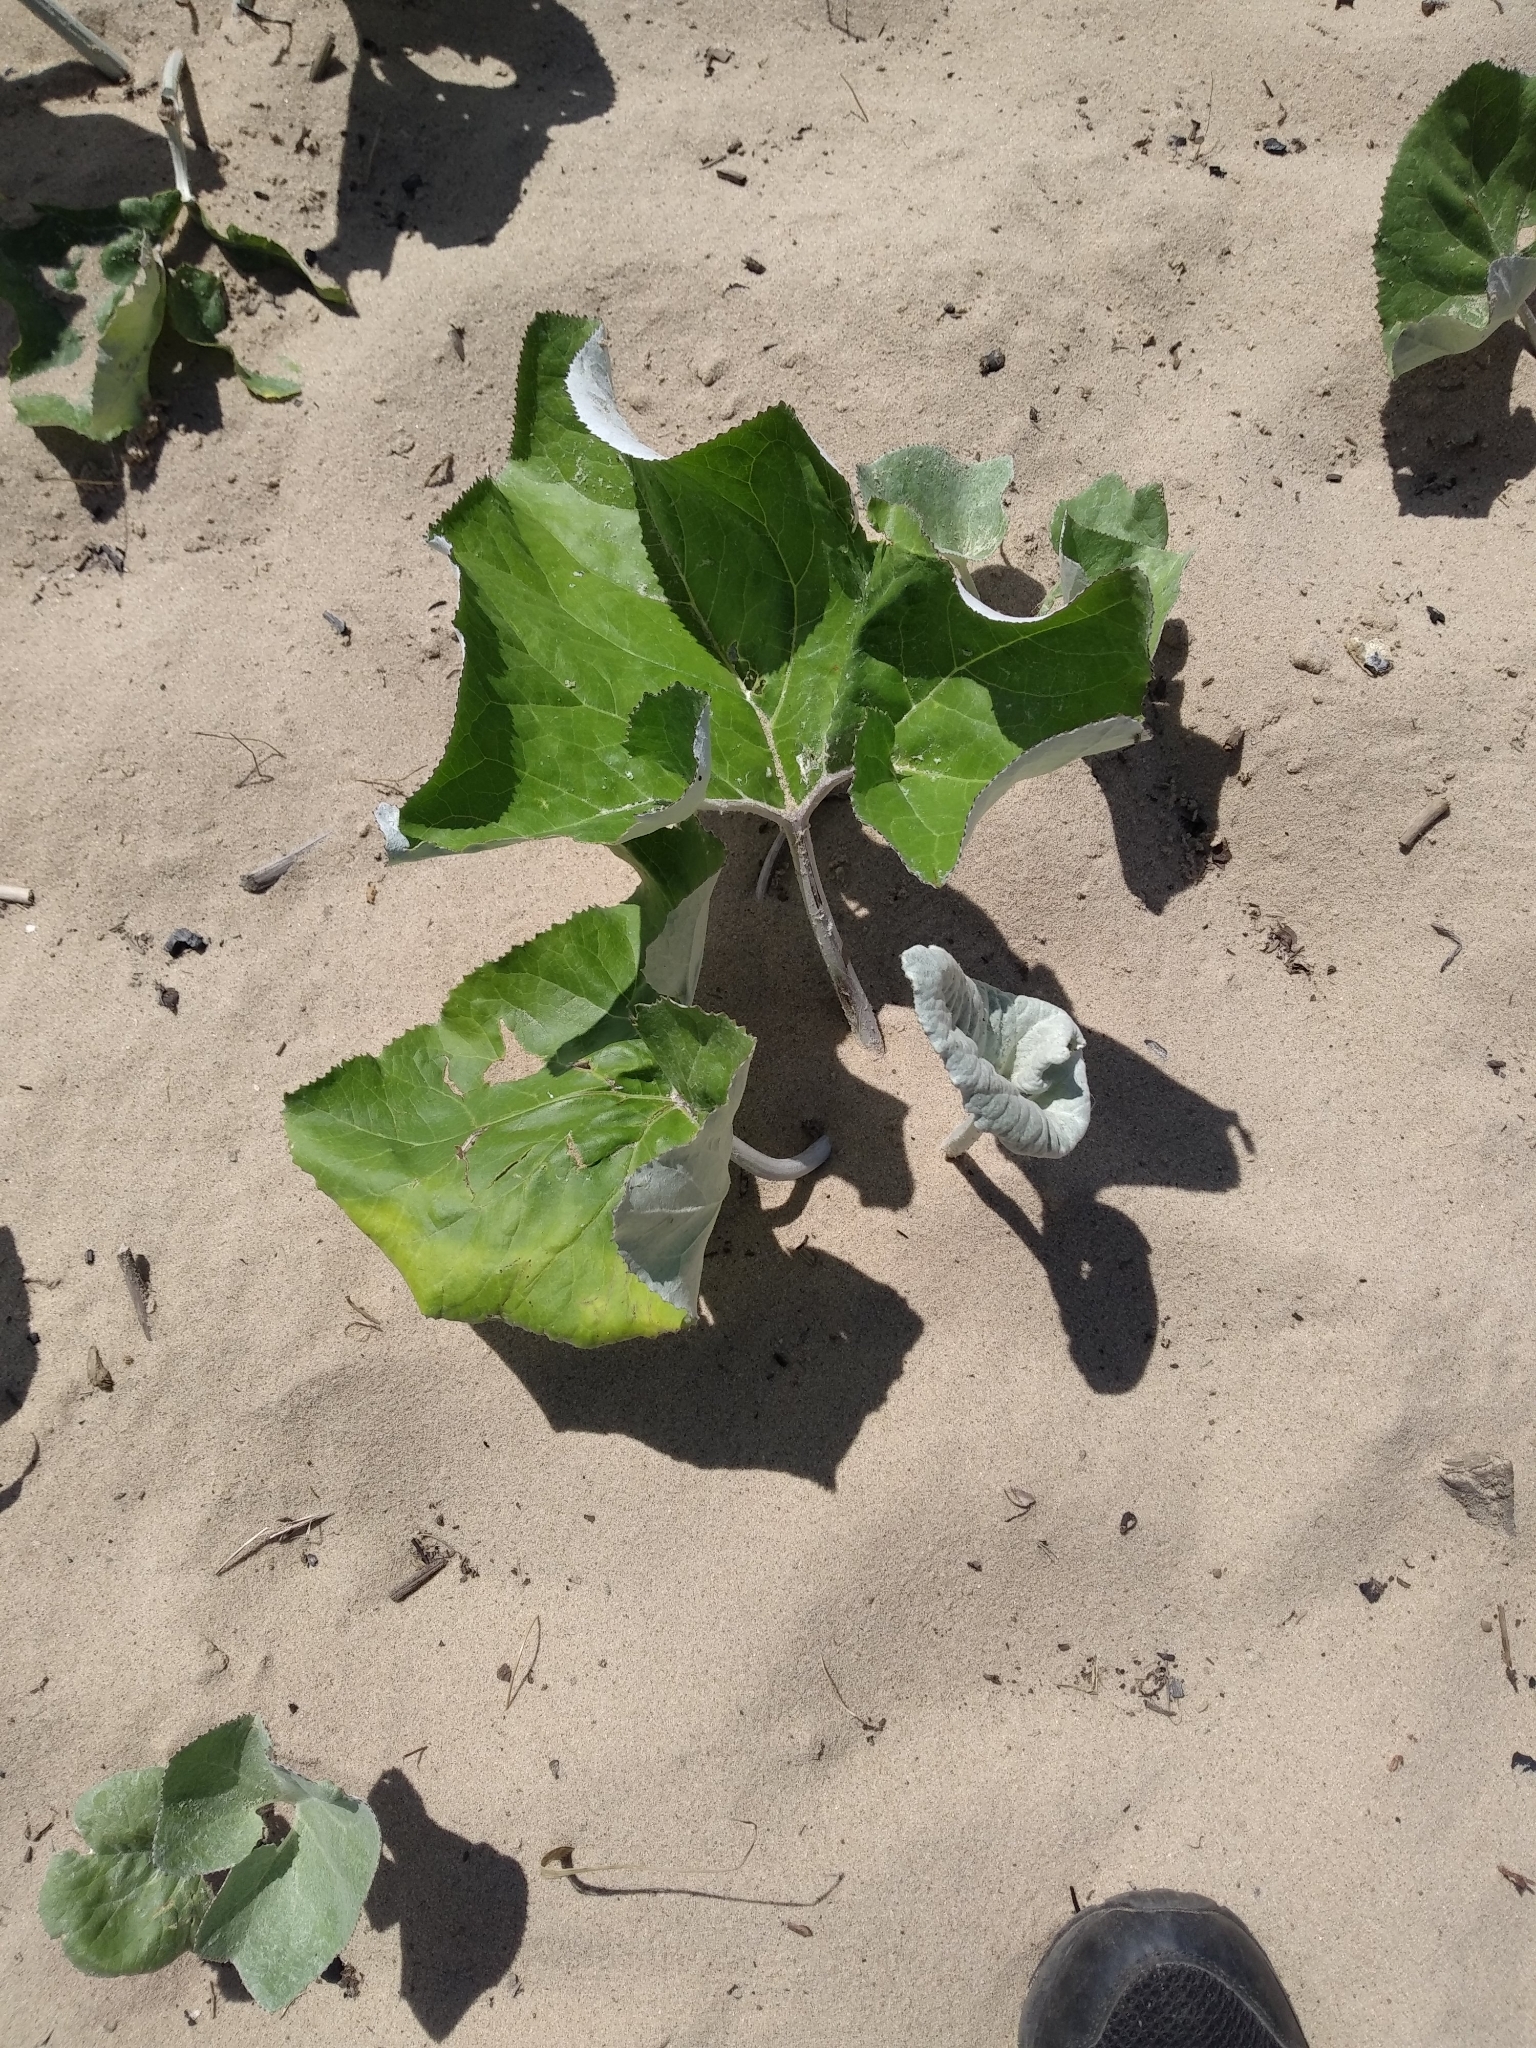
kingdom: Plantae
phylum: Tracheophyta
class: Magnoliopsida
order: Asterales
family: Asteraceae
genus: Petasites
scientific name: Petasites spurius
